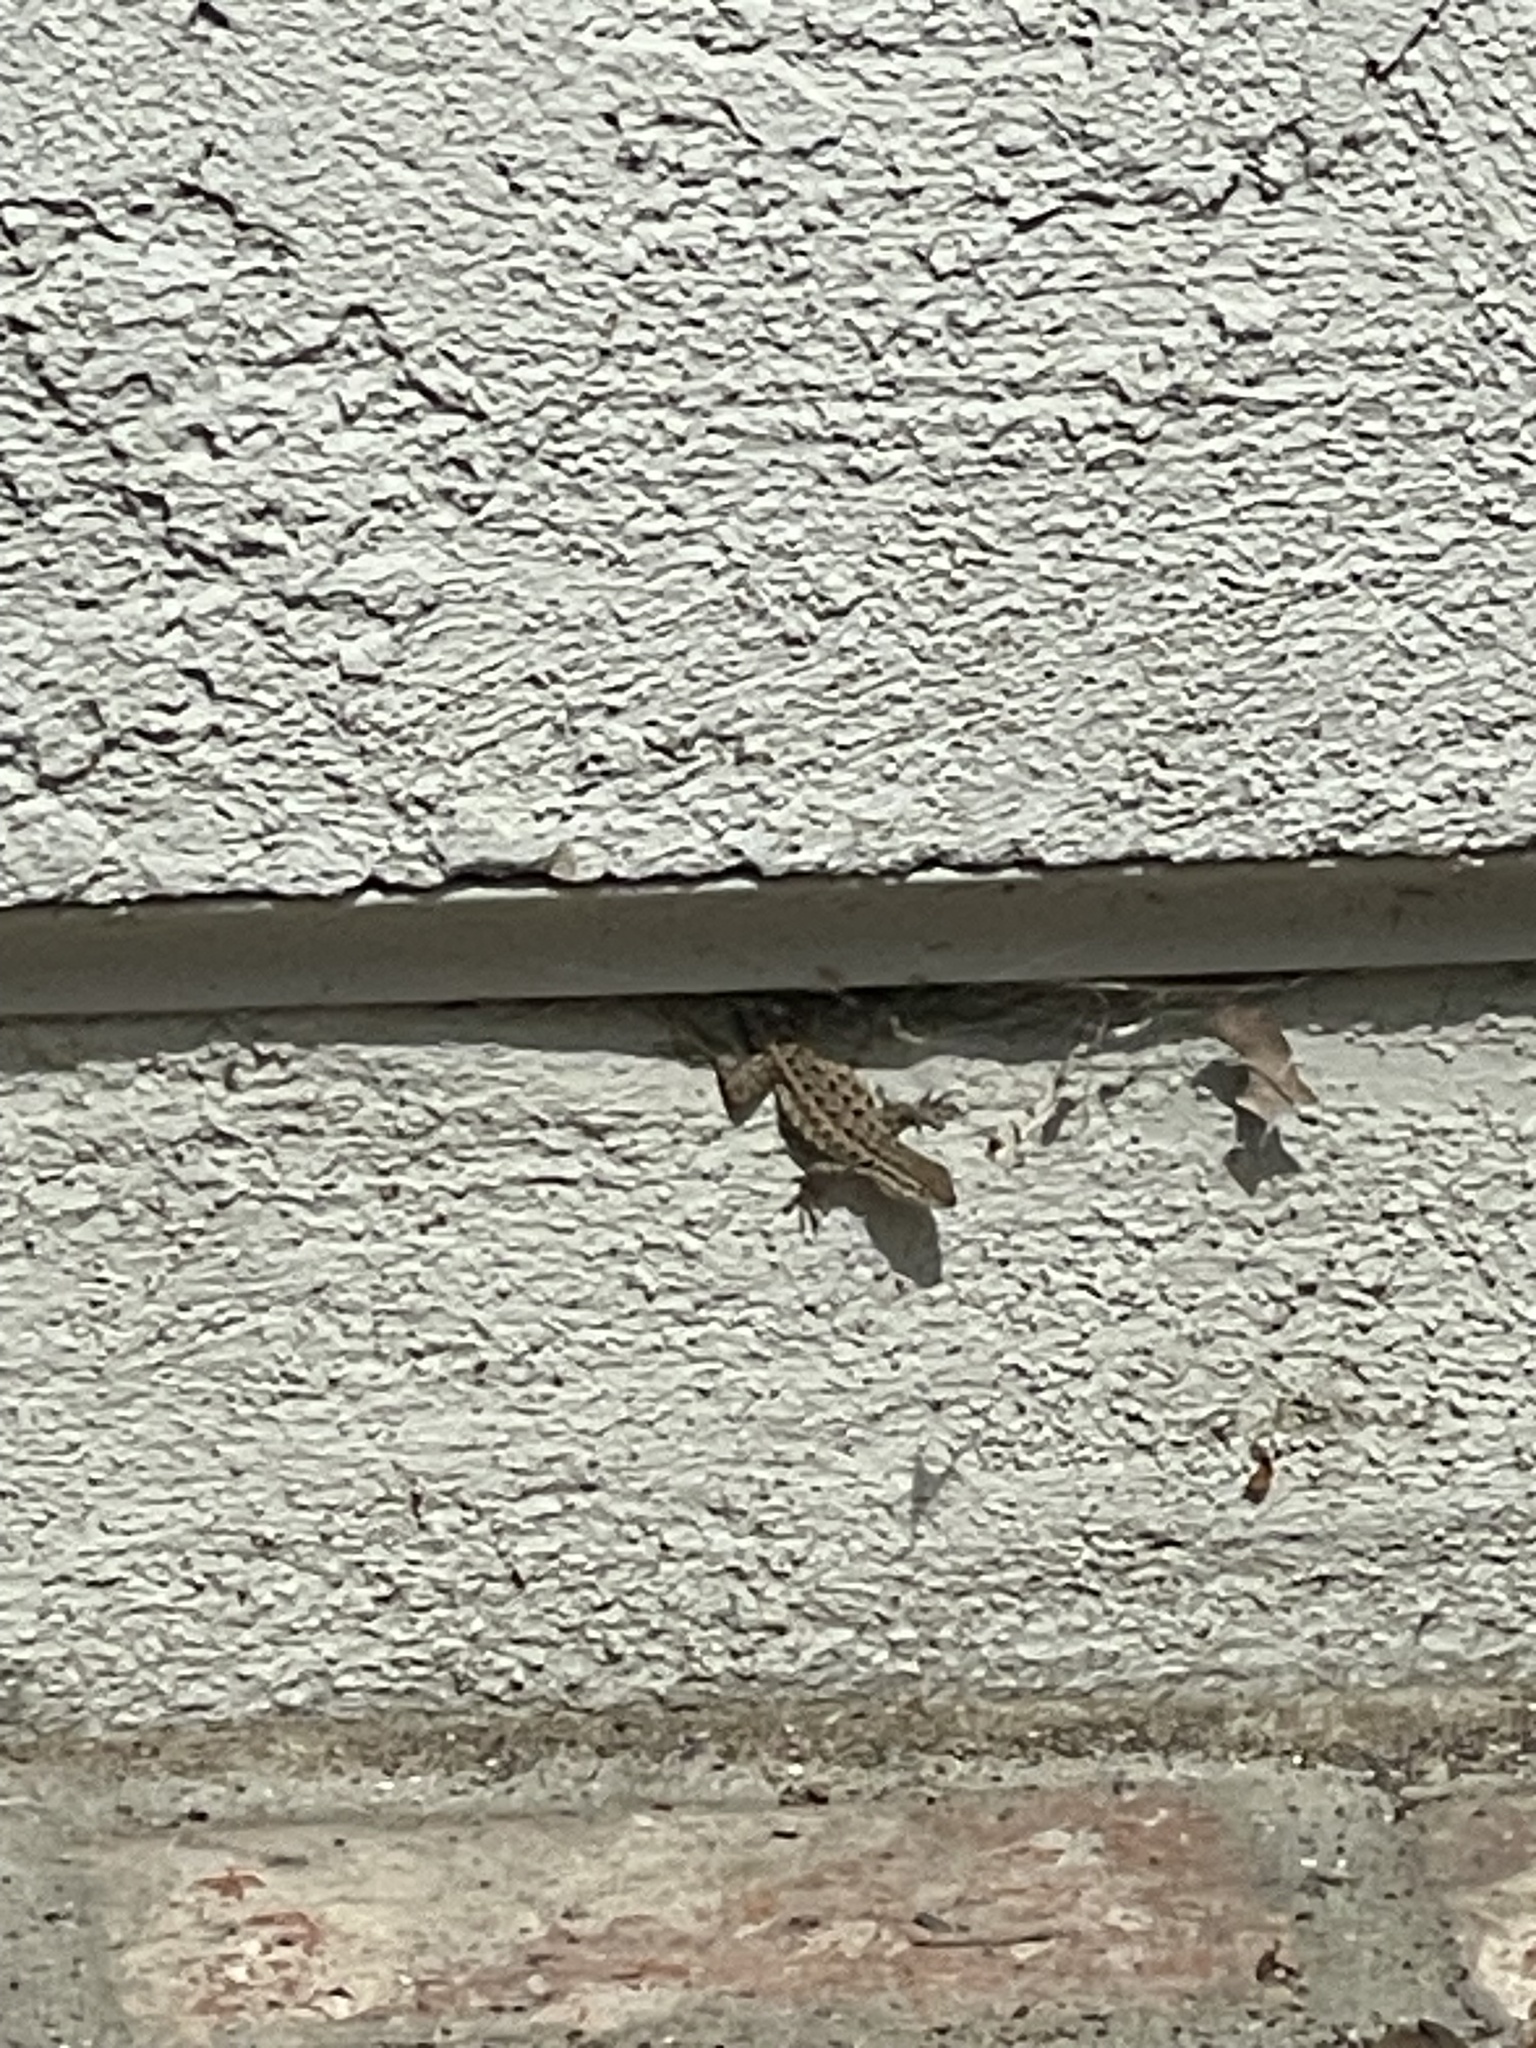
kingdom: Animalia
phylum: Chordata
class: Squamata
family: Phrynosomatidae
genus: Uta
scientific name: Uta stansburiana
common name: Side-blotched lizard
